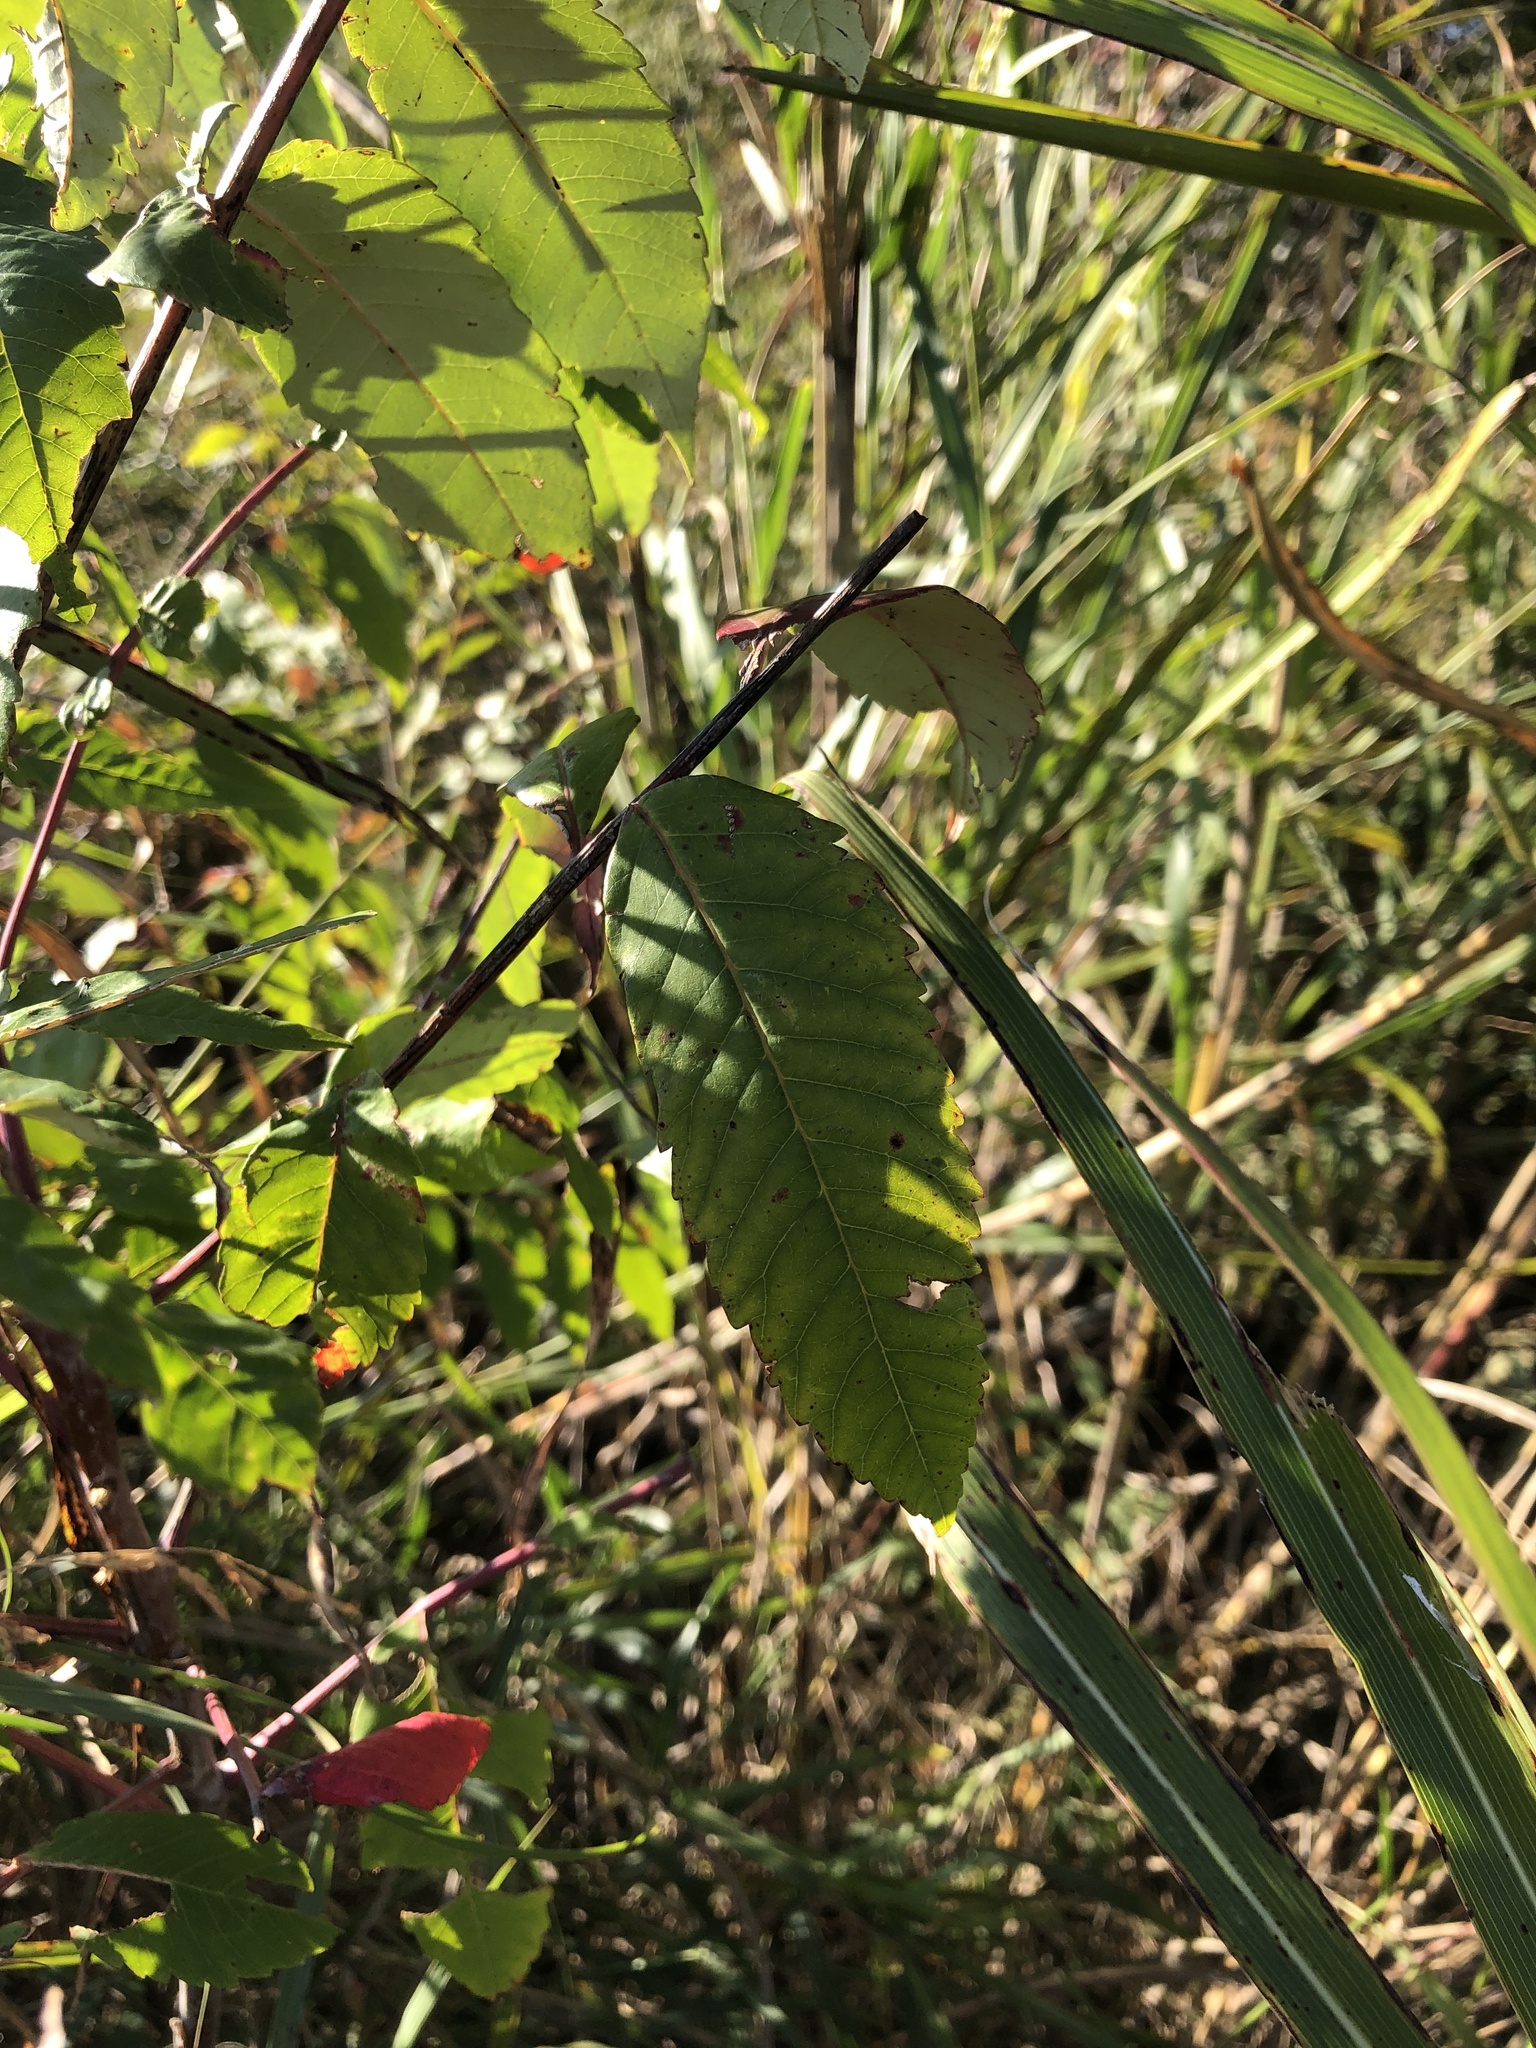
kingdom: Plantae
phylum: Tracheophyta
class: Magnoliopsida
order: Sapindales
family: Anacardiaceae
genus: Rhus
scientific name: Rhus glabra
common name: Scarlet sumac
